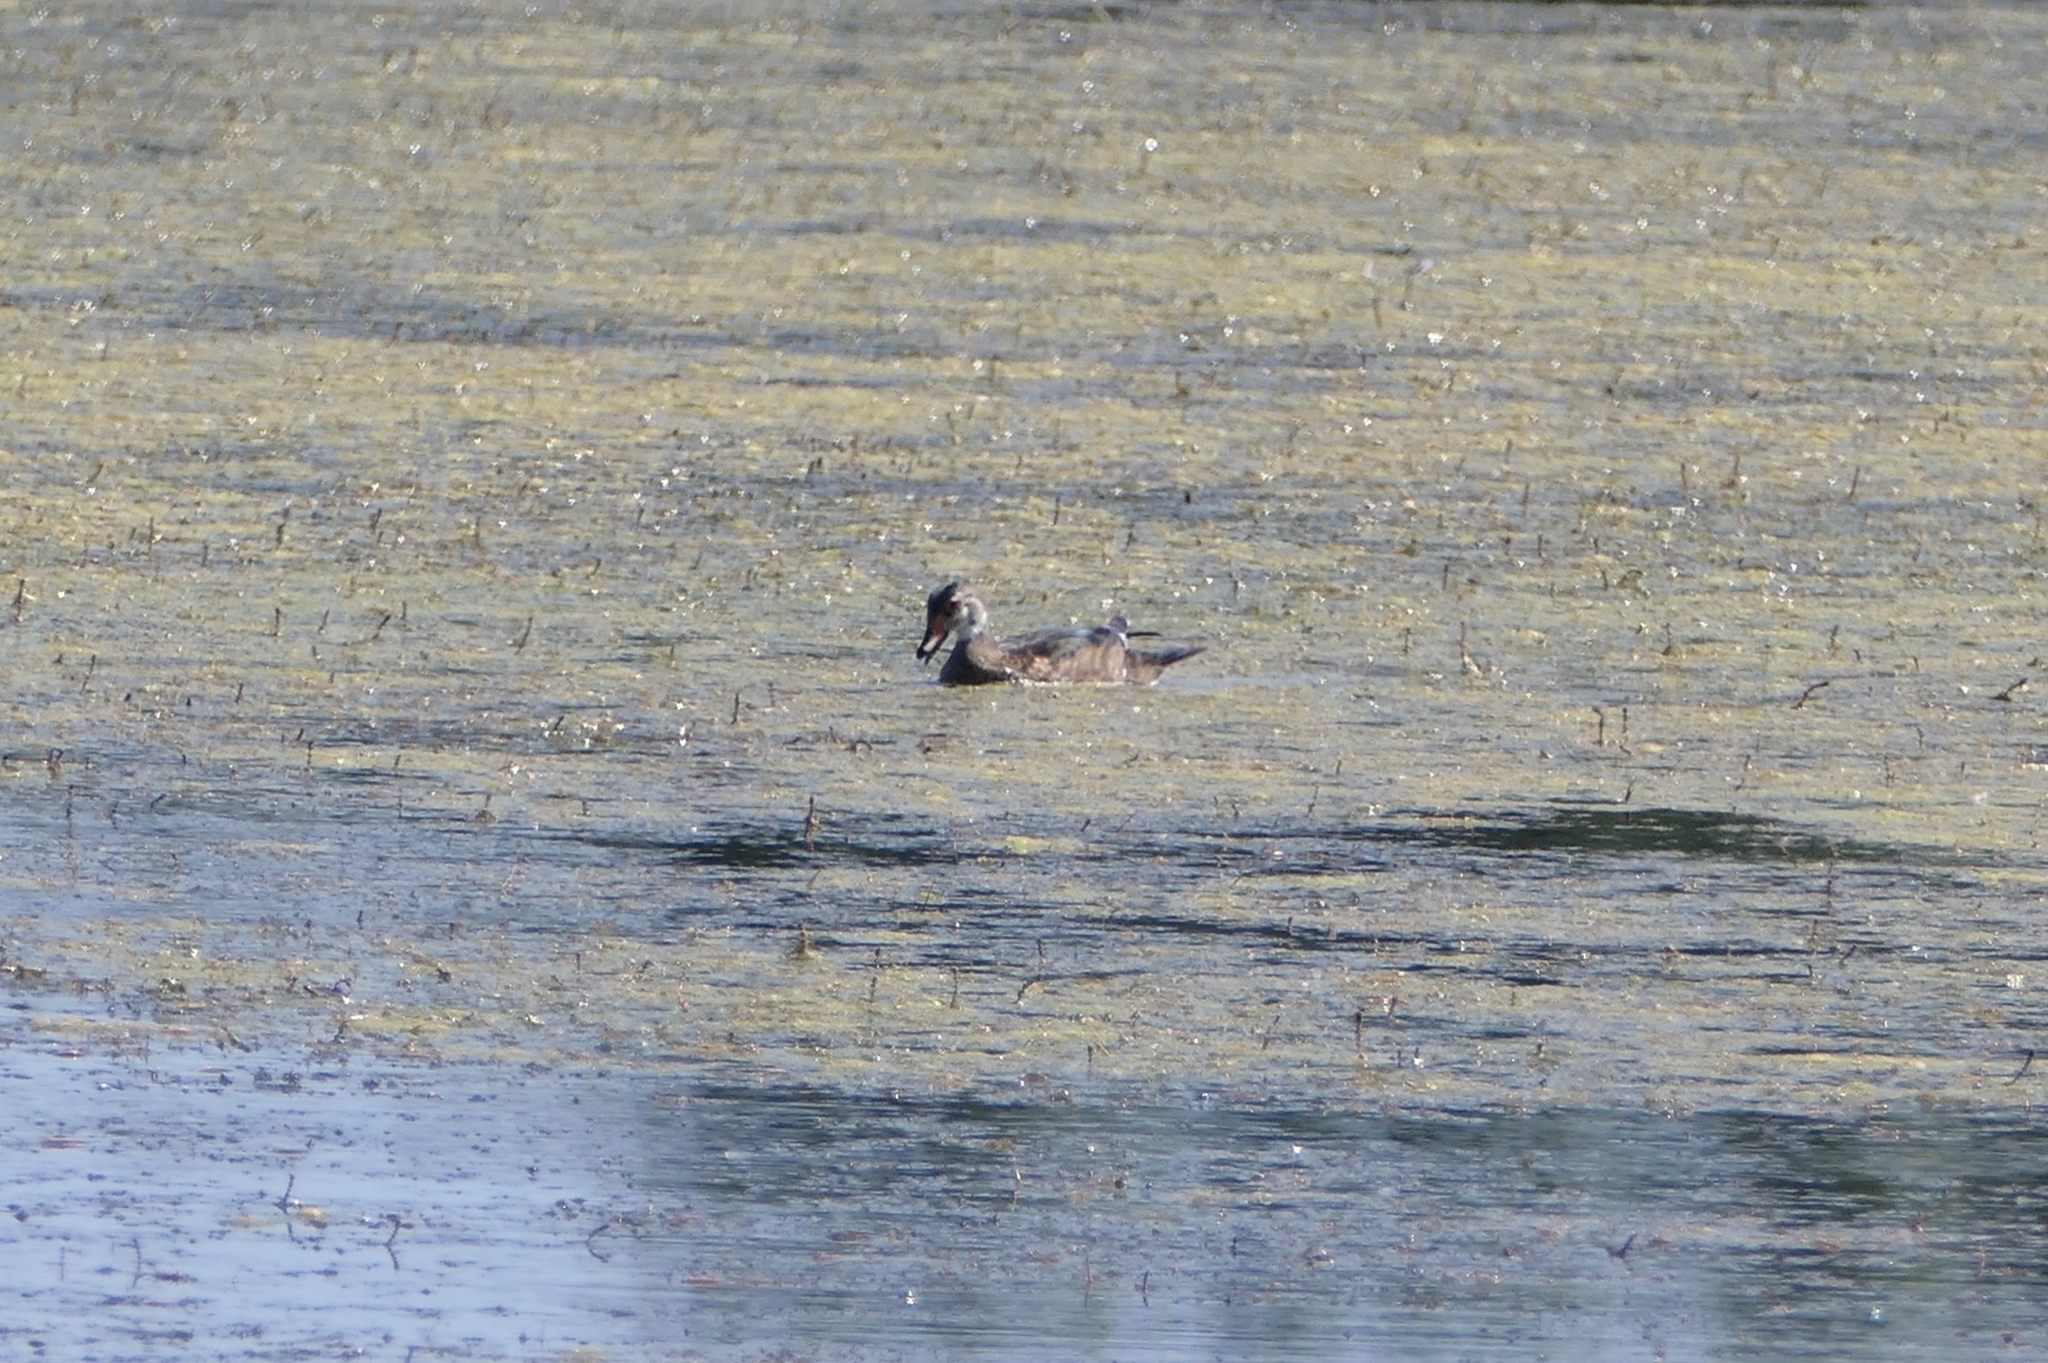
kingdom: Animalia
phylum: Chordata
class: Aves
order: Anseriformes
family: Anatidae
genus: Aix
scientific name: Aix sponsa
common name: Wood duck
